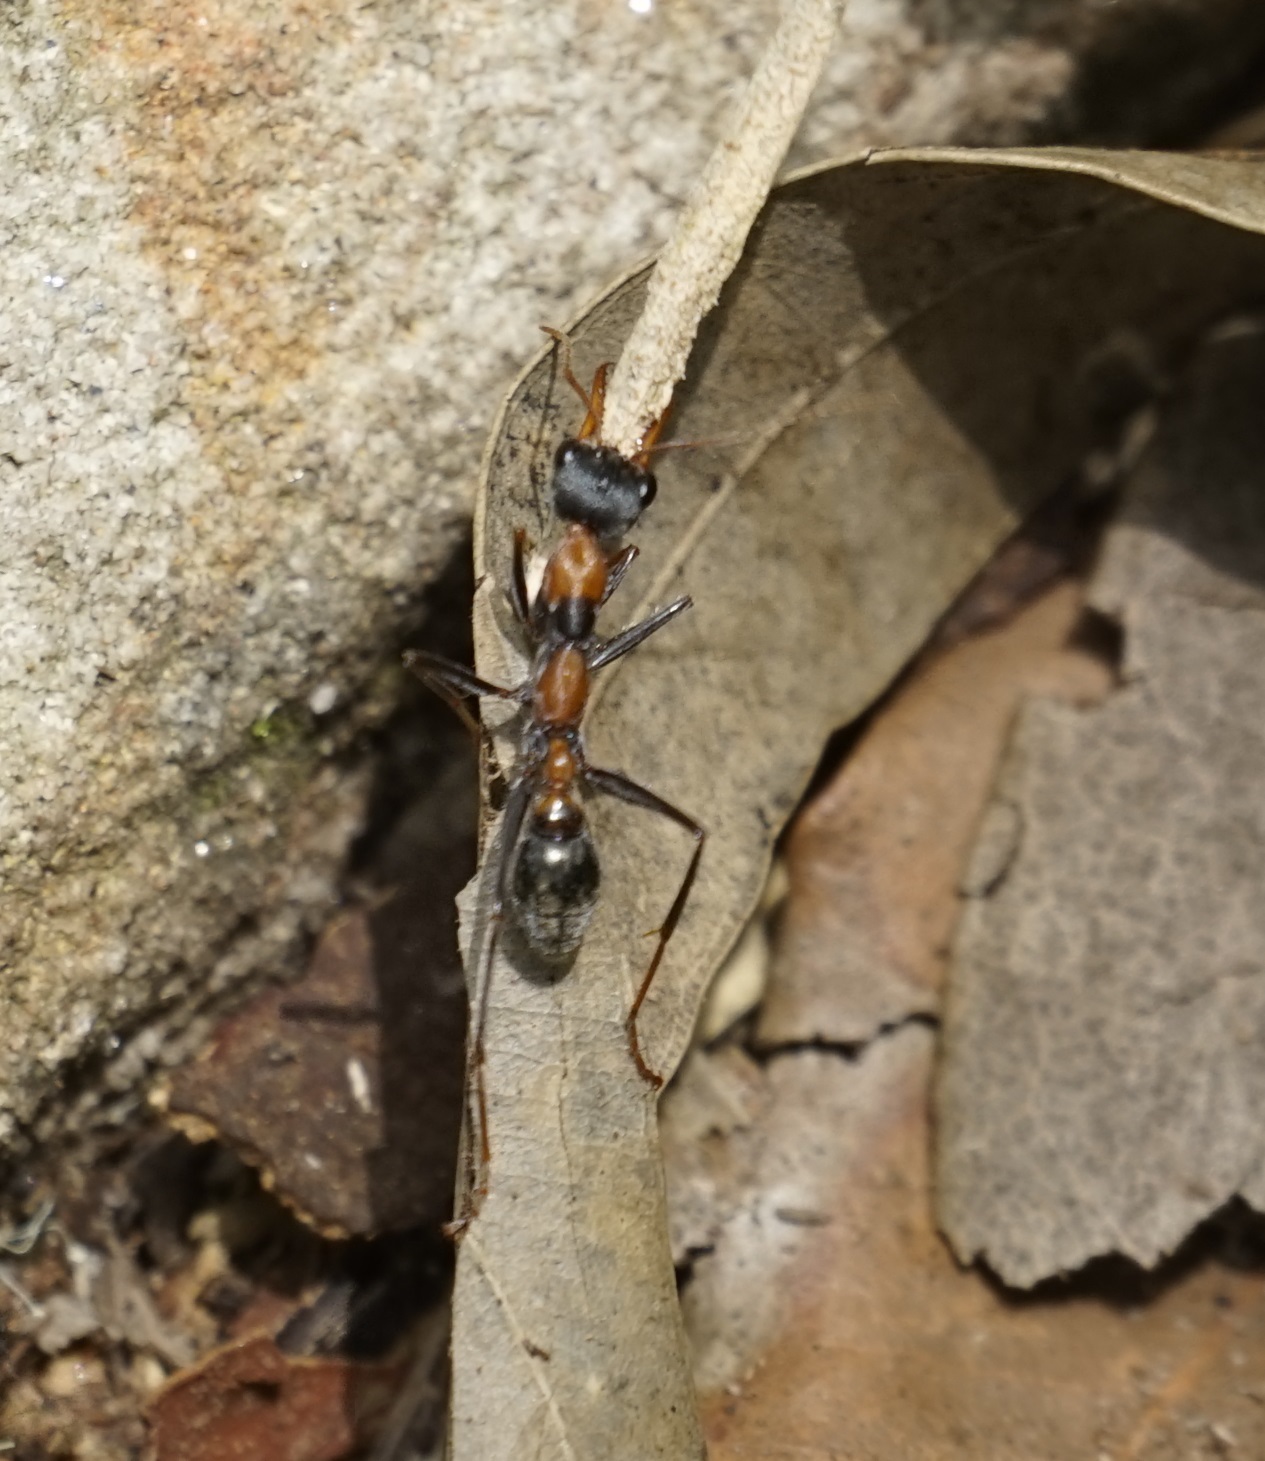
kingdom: Animalia
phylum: Arthropoda
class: Insecta
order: Hymenoptera
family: Formicidae
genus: Myrmecia
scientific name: Myrmecia nigrocincta
